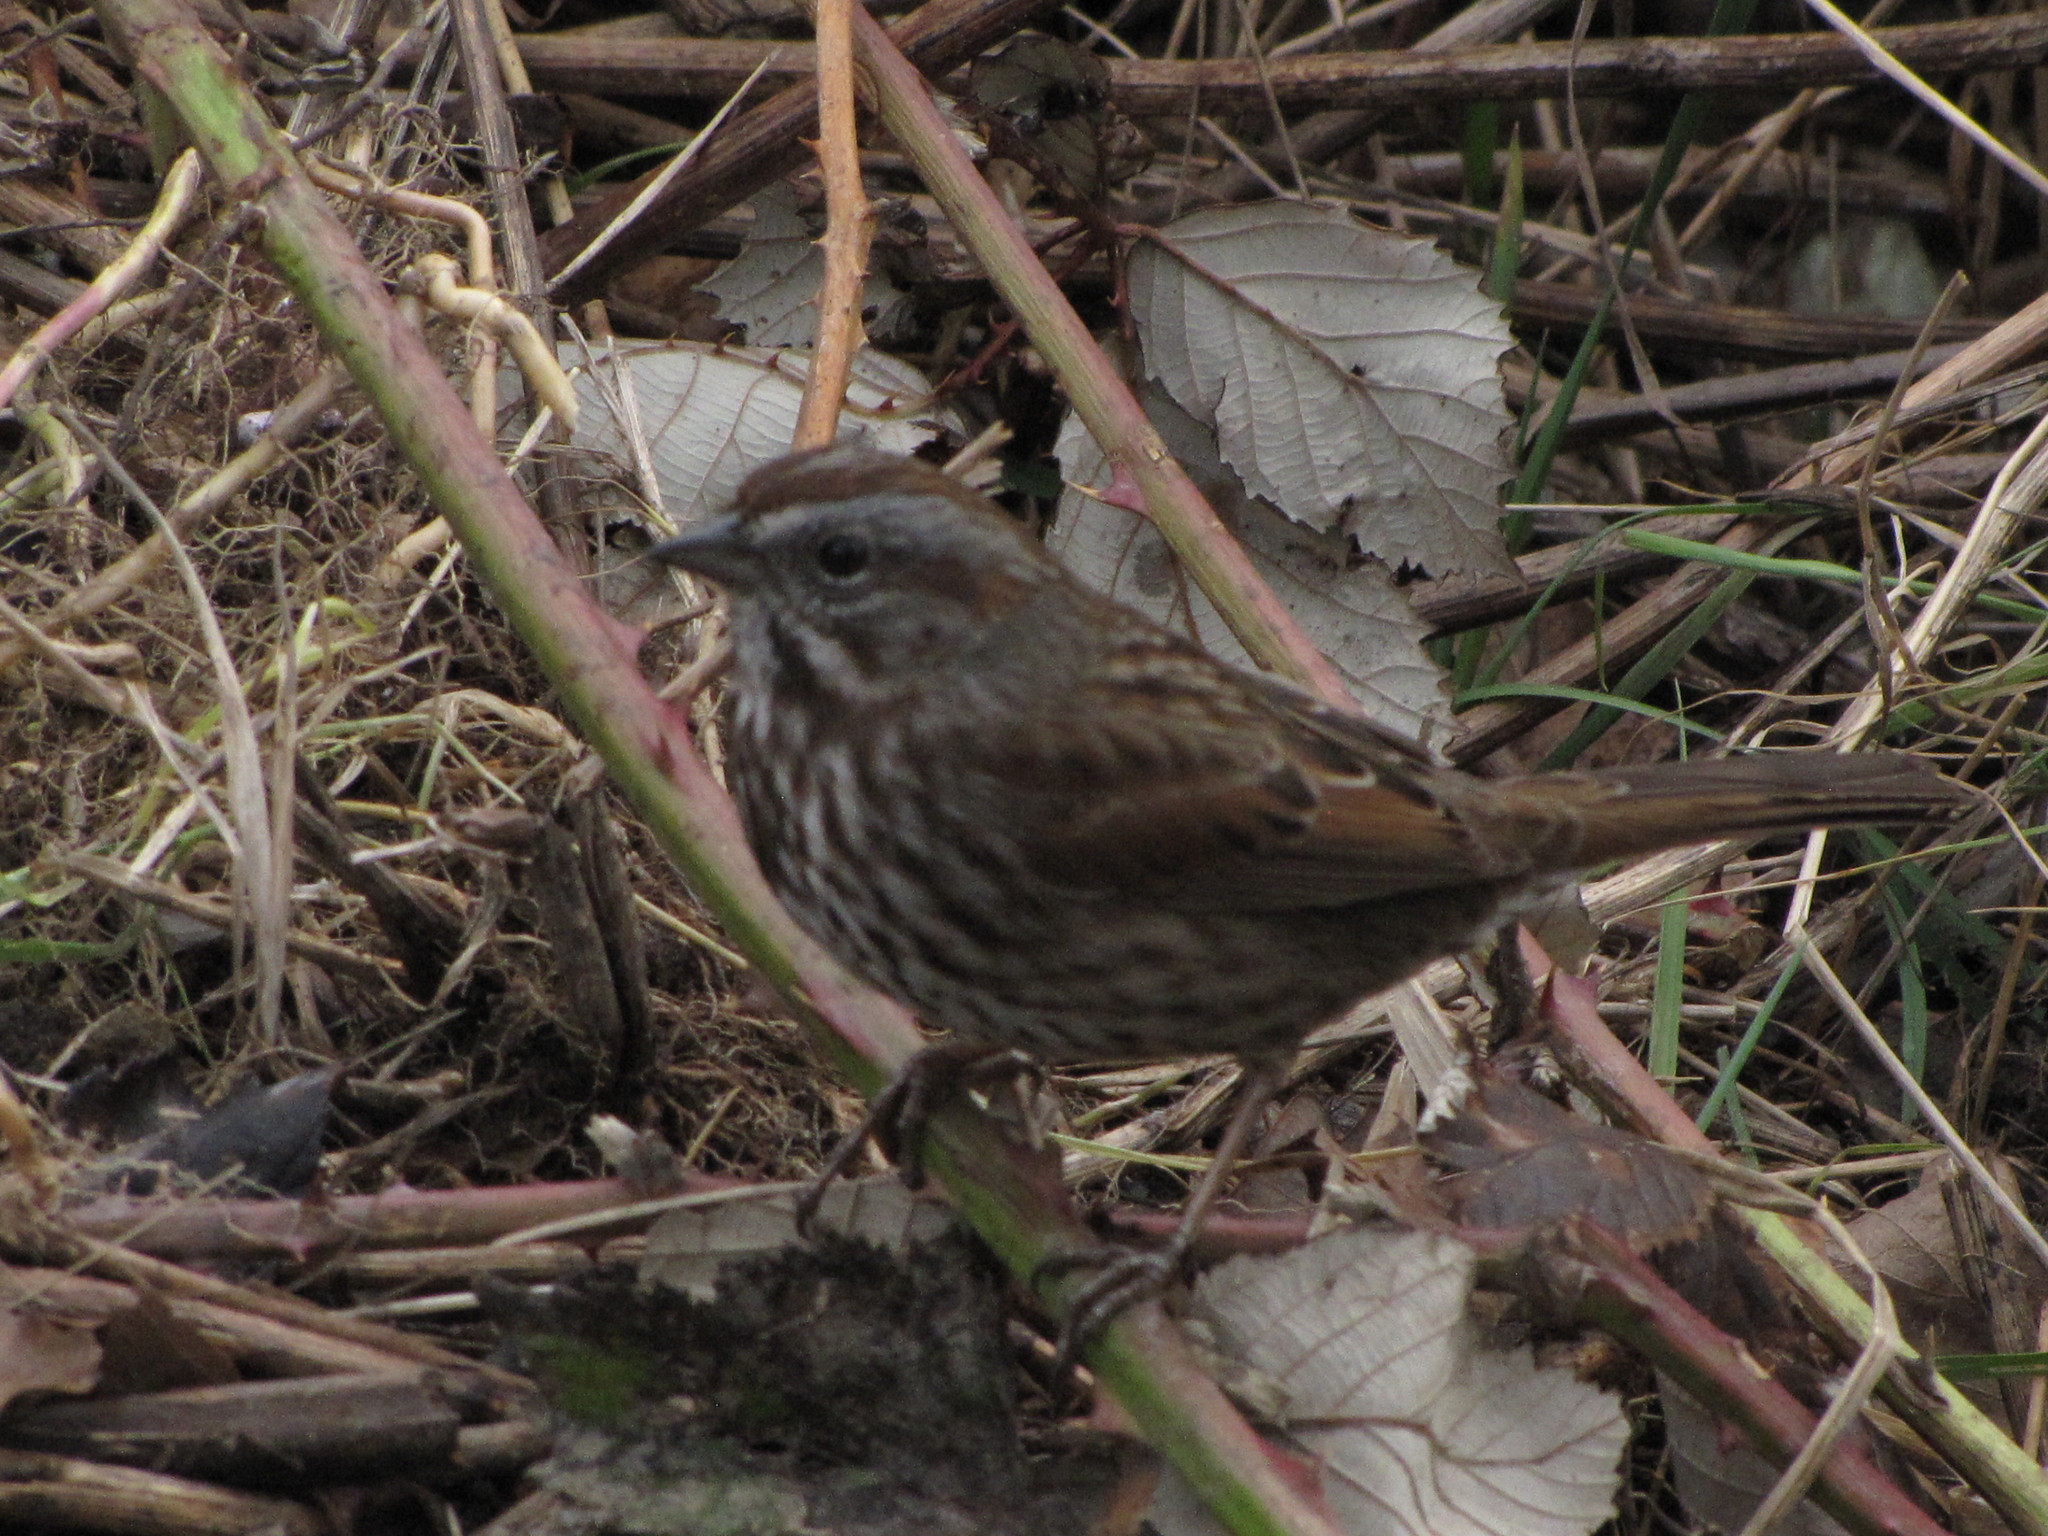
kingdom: Animalia
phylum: Chordata
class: Aves
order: Passeriformes
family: Passerellidae
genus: Melospiza
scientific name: Melospiza melodia
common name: Song sparrow
